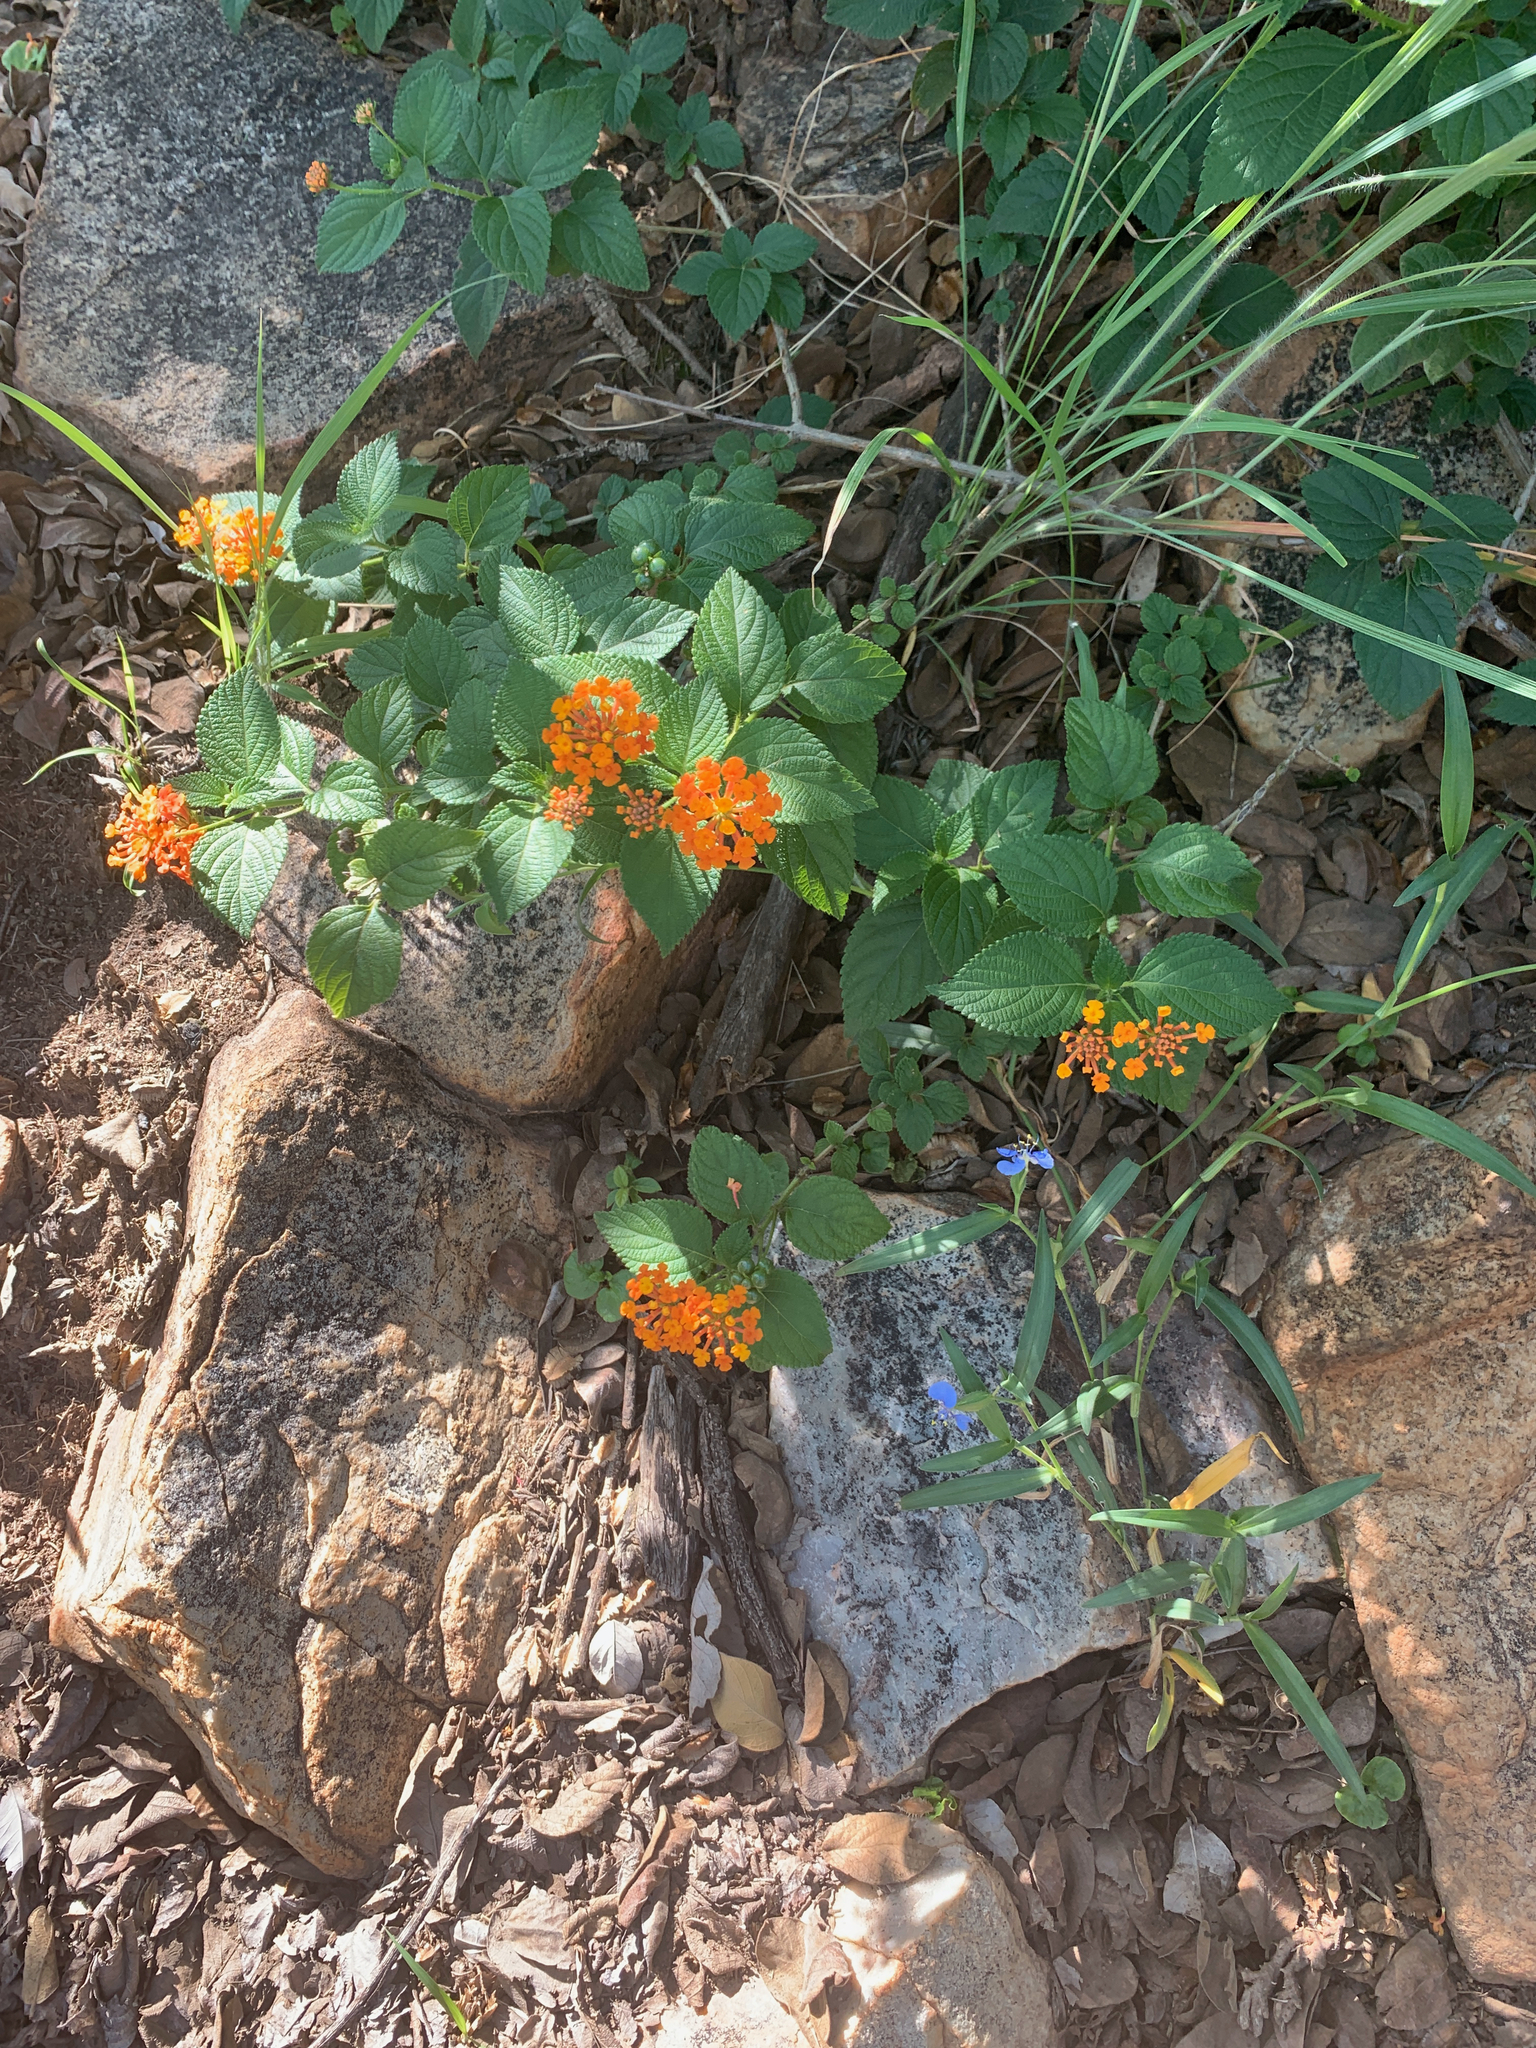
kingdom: Plantae
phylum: Tracheophyta
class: Magnoliopsida
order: Lamiales
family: Verbenaceae
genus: Lantana
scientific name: Lantana camara
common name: Lantana
